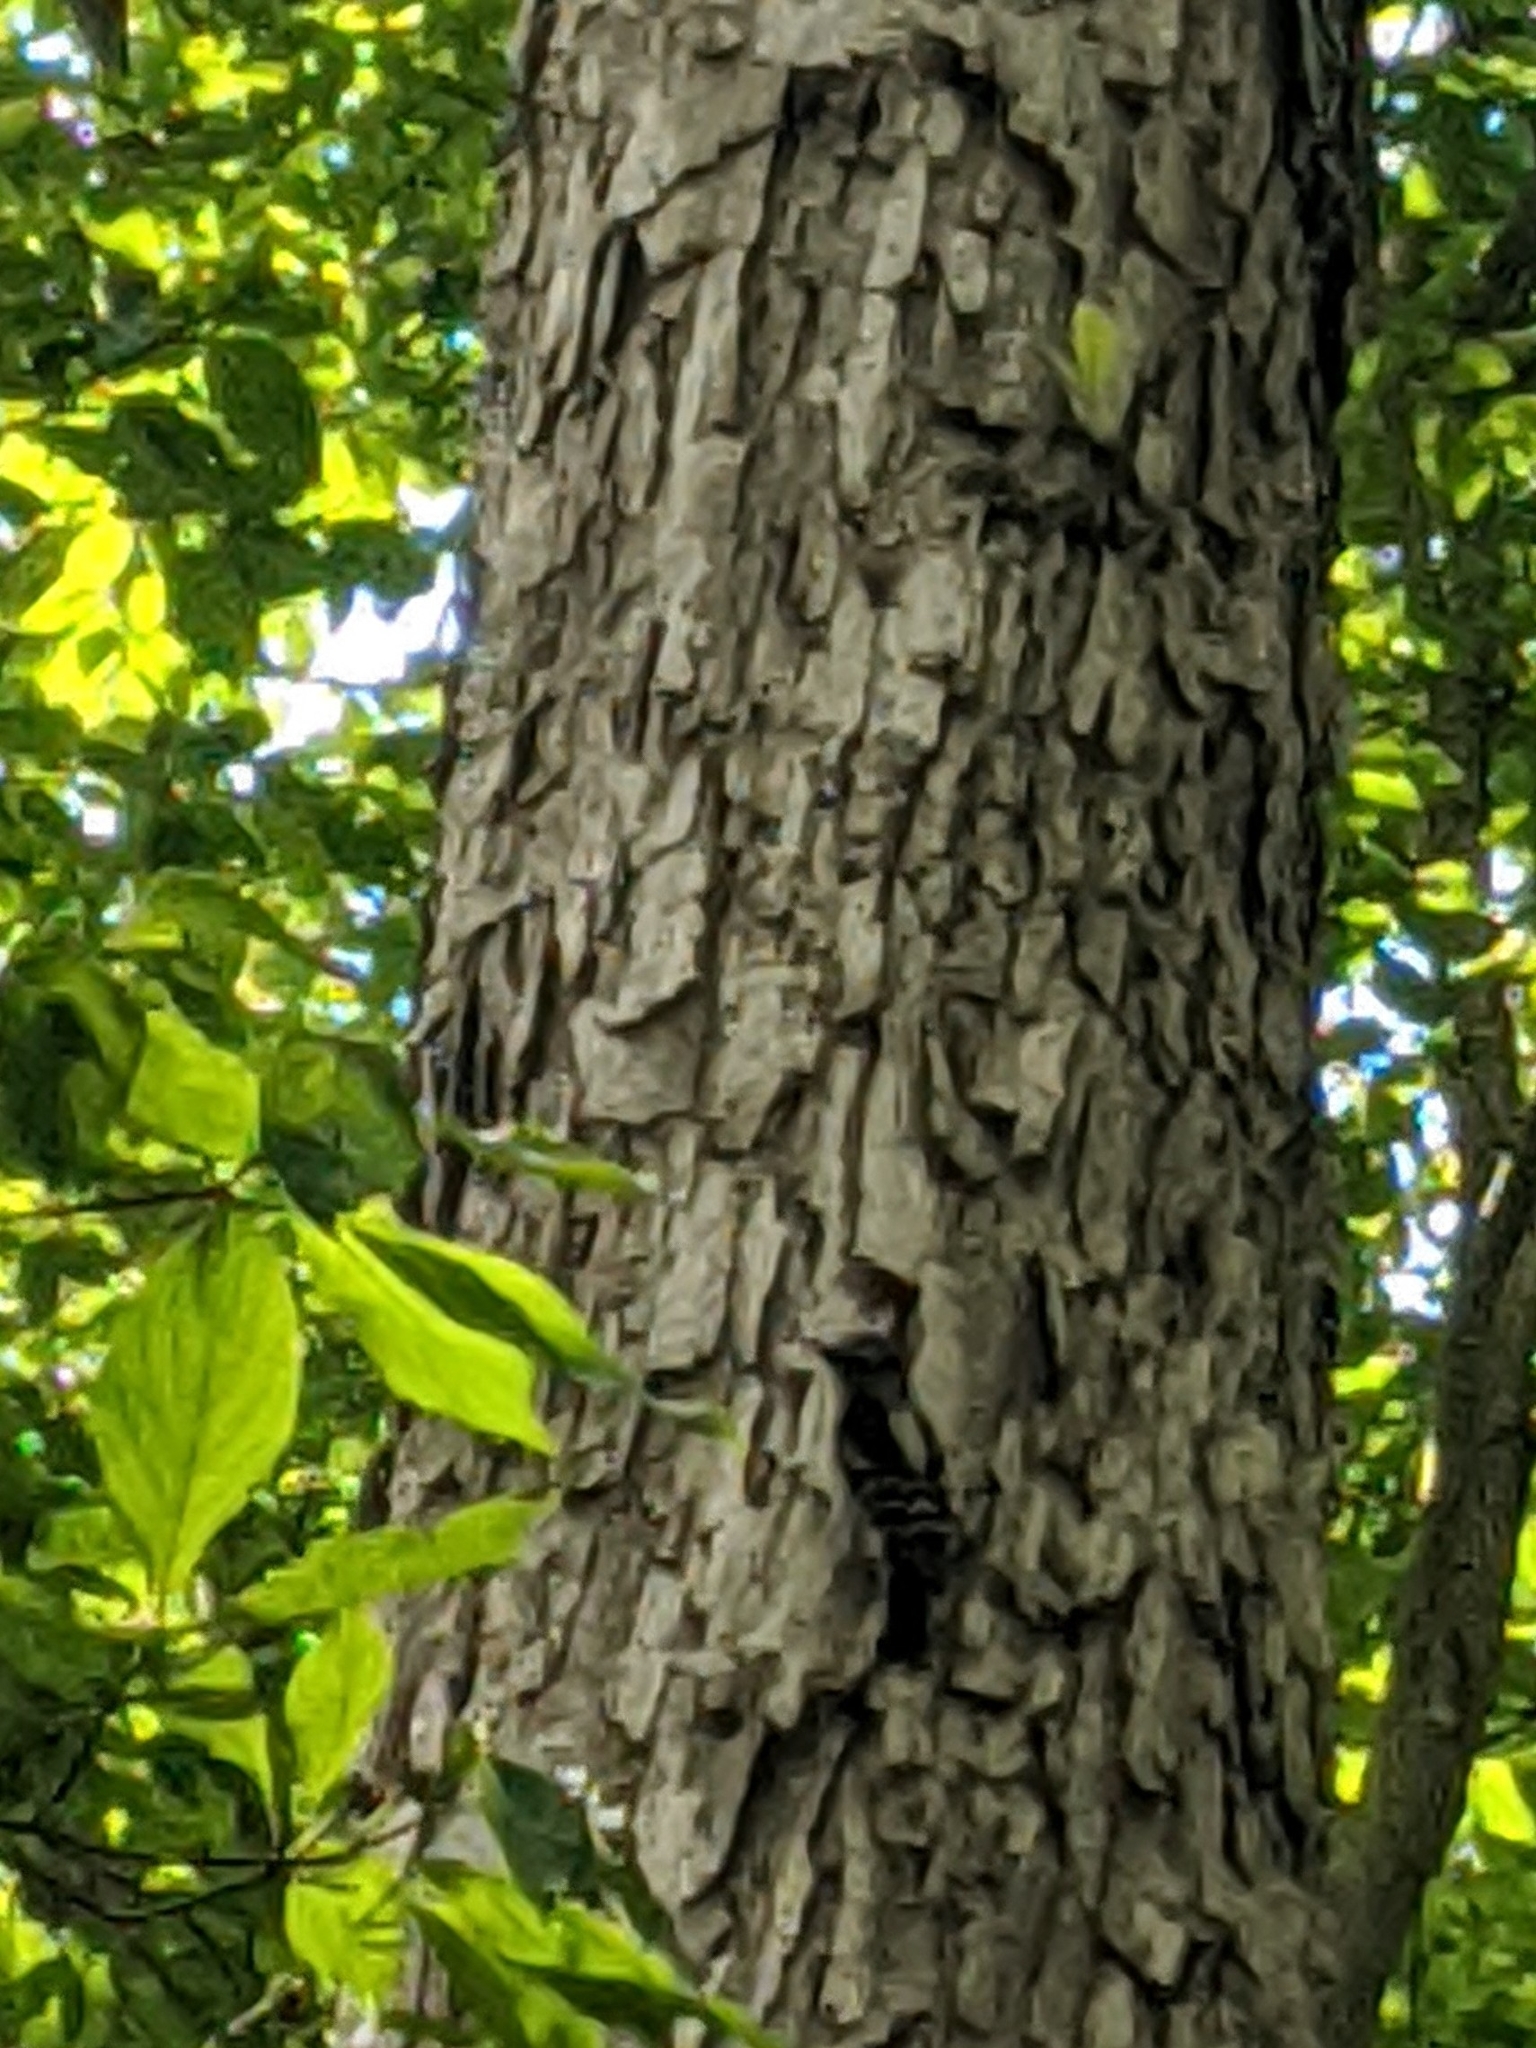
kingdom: Animalia
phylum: Chordata
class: Aves
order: Piciformes
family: Picidae
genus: Dryobates
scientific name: Dryobates pubescens
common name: Downy woodpecker
